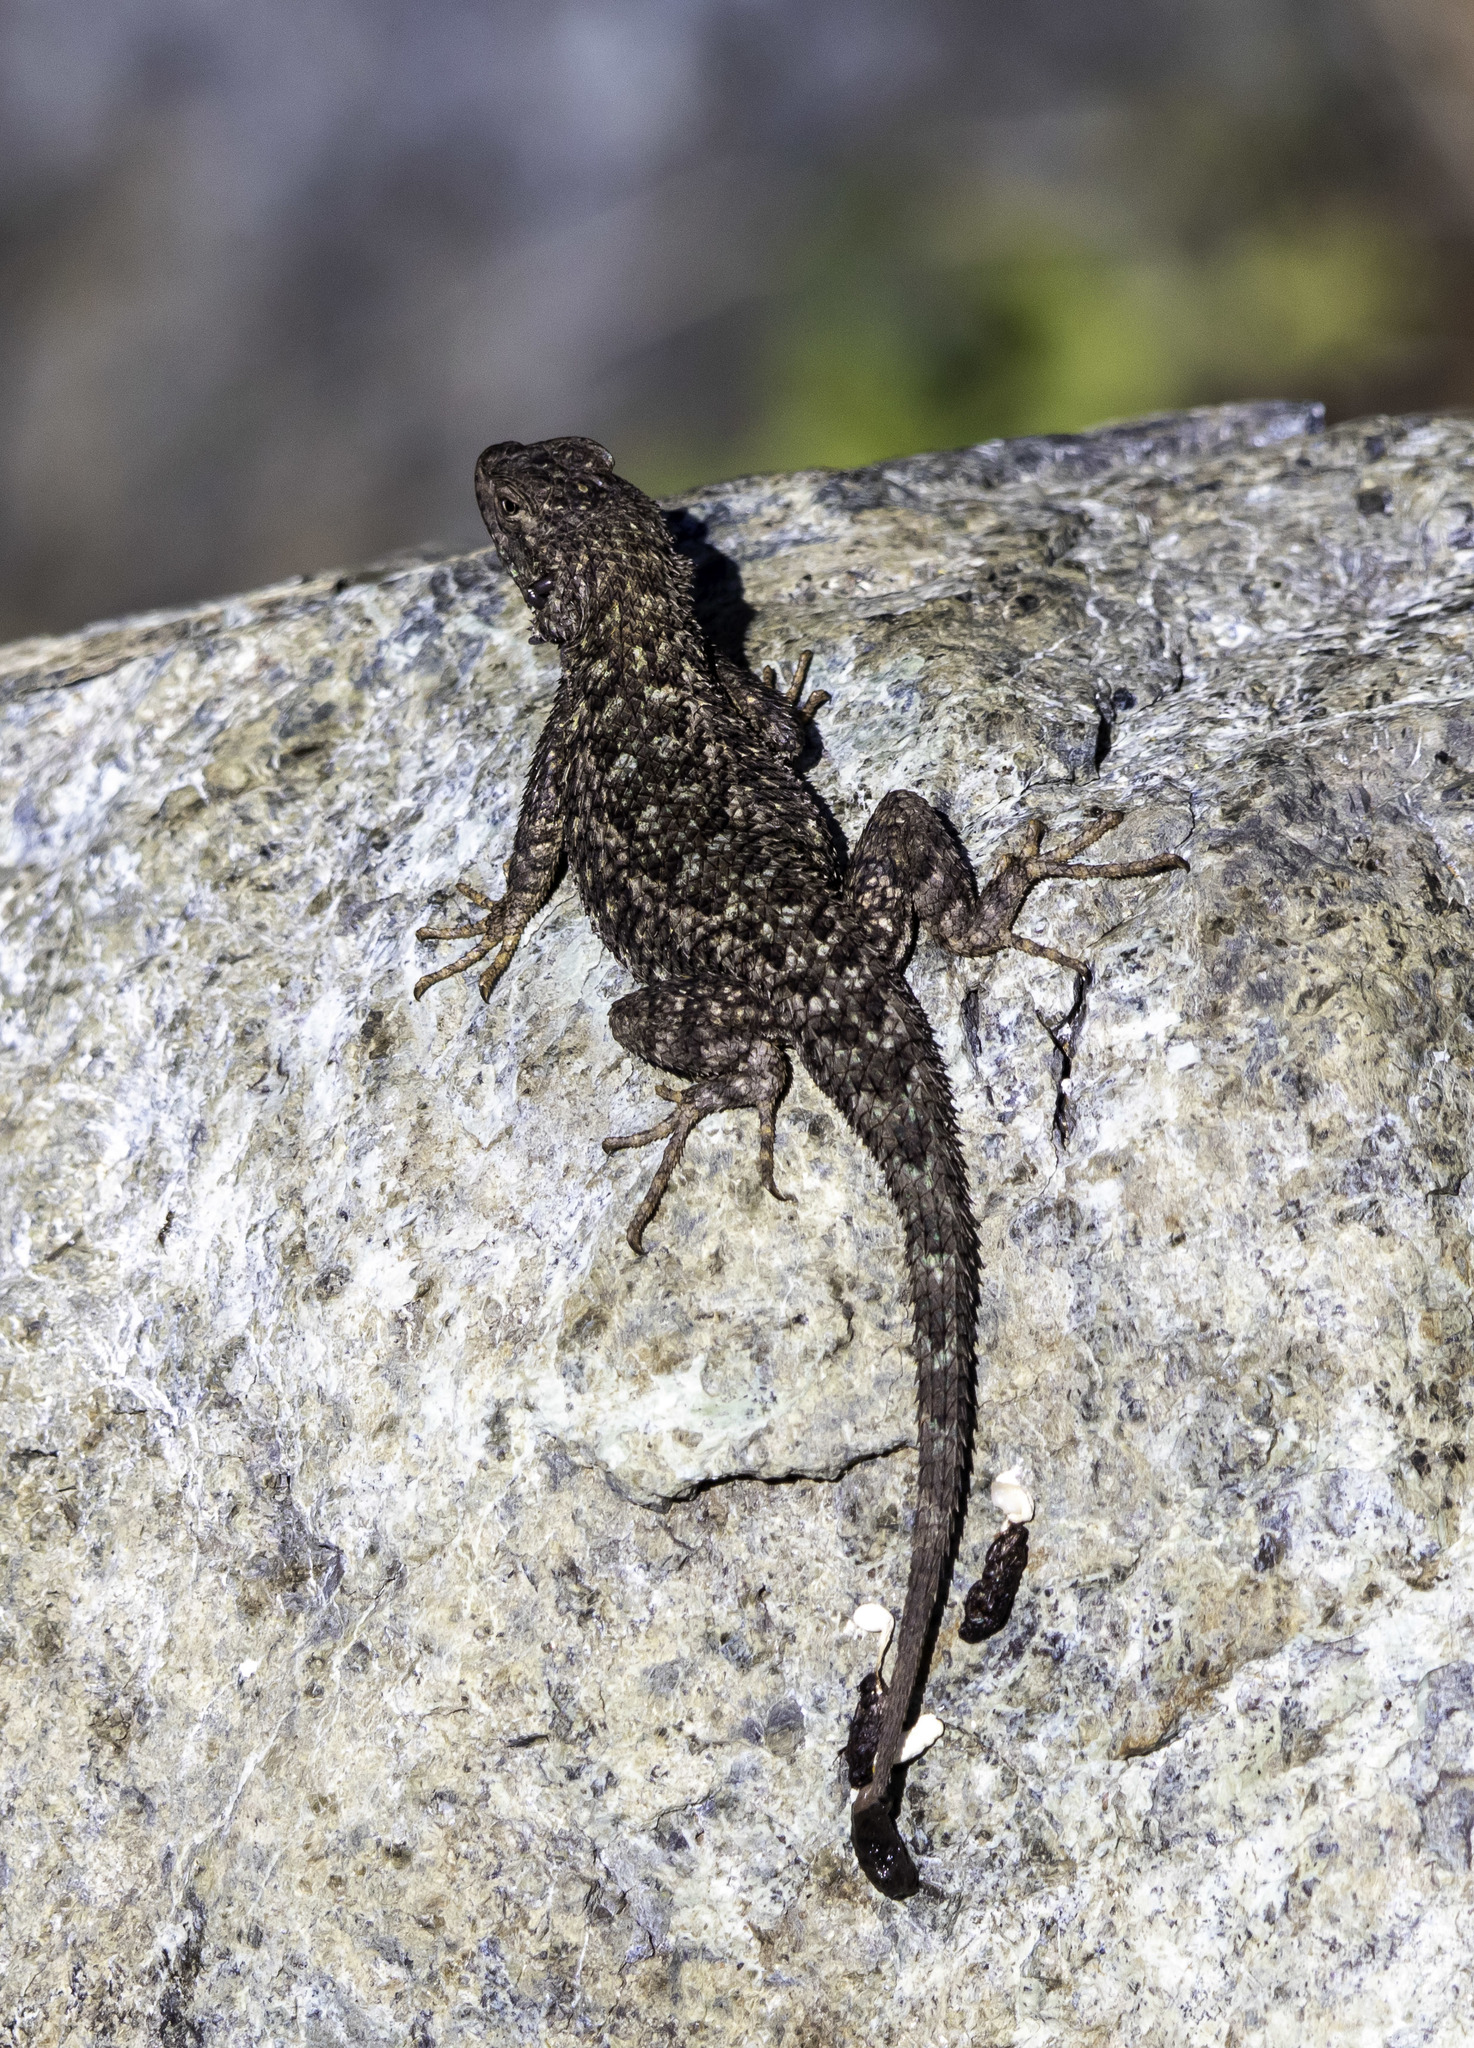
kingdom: Animalia
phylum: Chordata
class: Squamata
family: Phrynosomatidae
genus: Sceloporus
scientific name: Sceloporus occidentalis
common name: Western fence lizard
